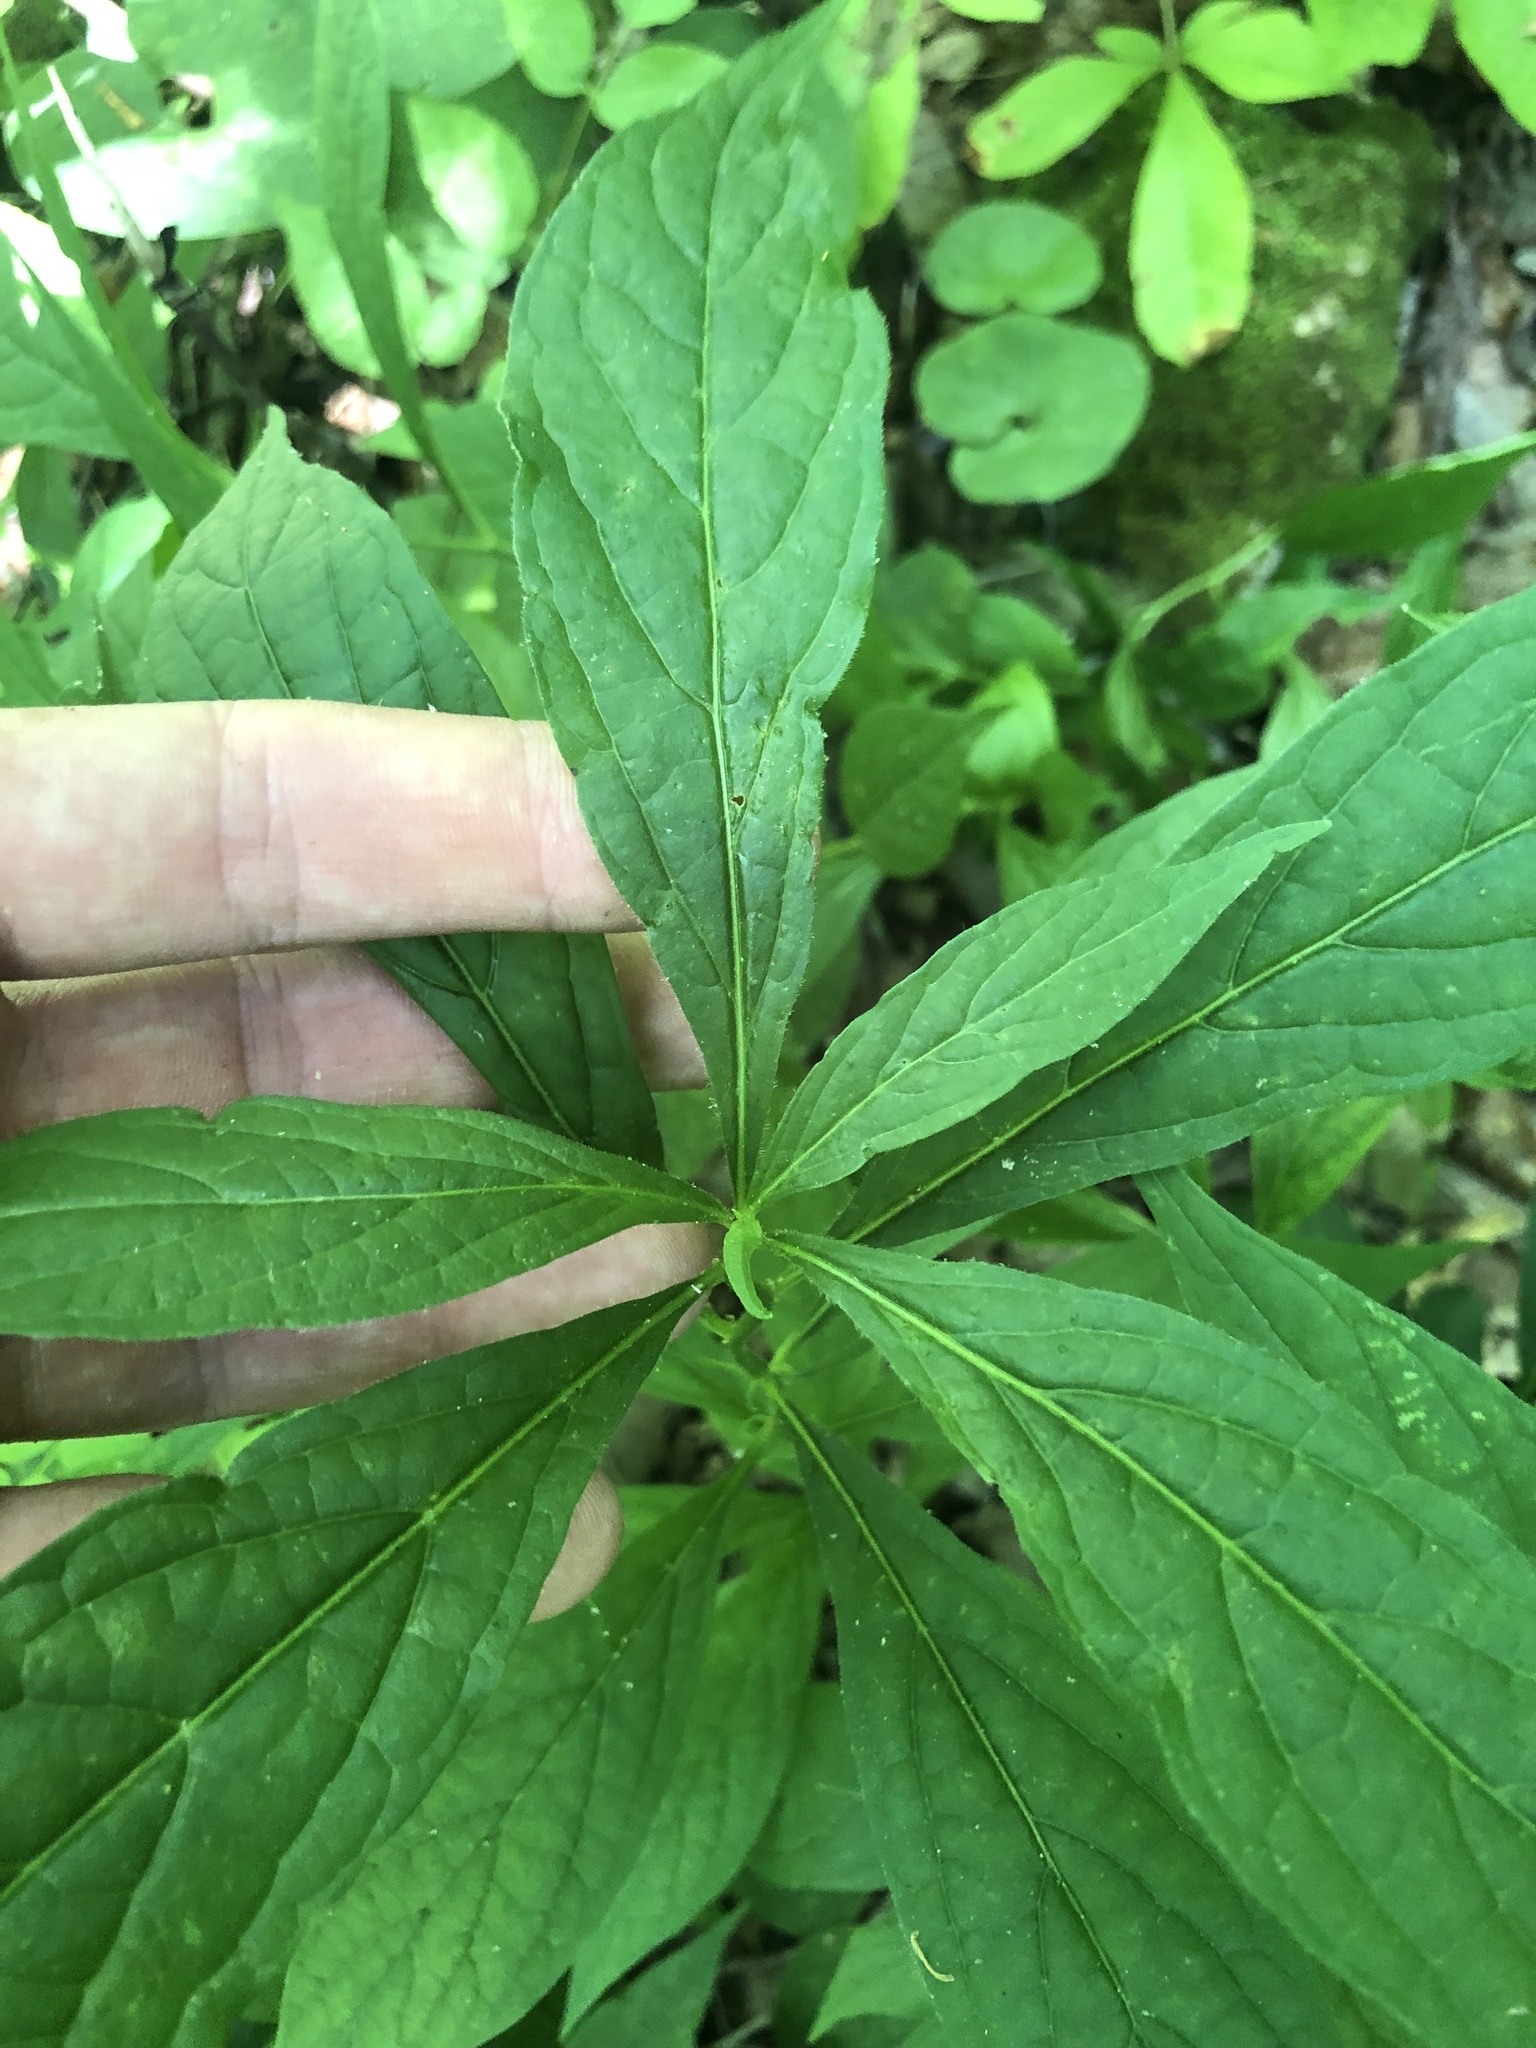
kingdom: Plantae
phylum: Tracheophyta
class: Magnoliopsida
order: Malpighiales
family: Violaceae
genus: Cubelium
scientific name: Cubelium concolor
